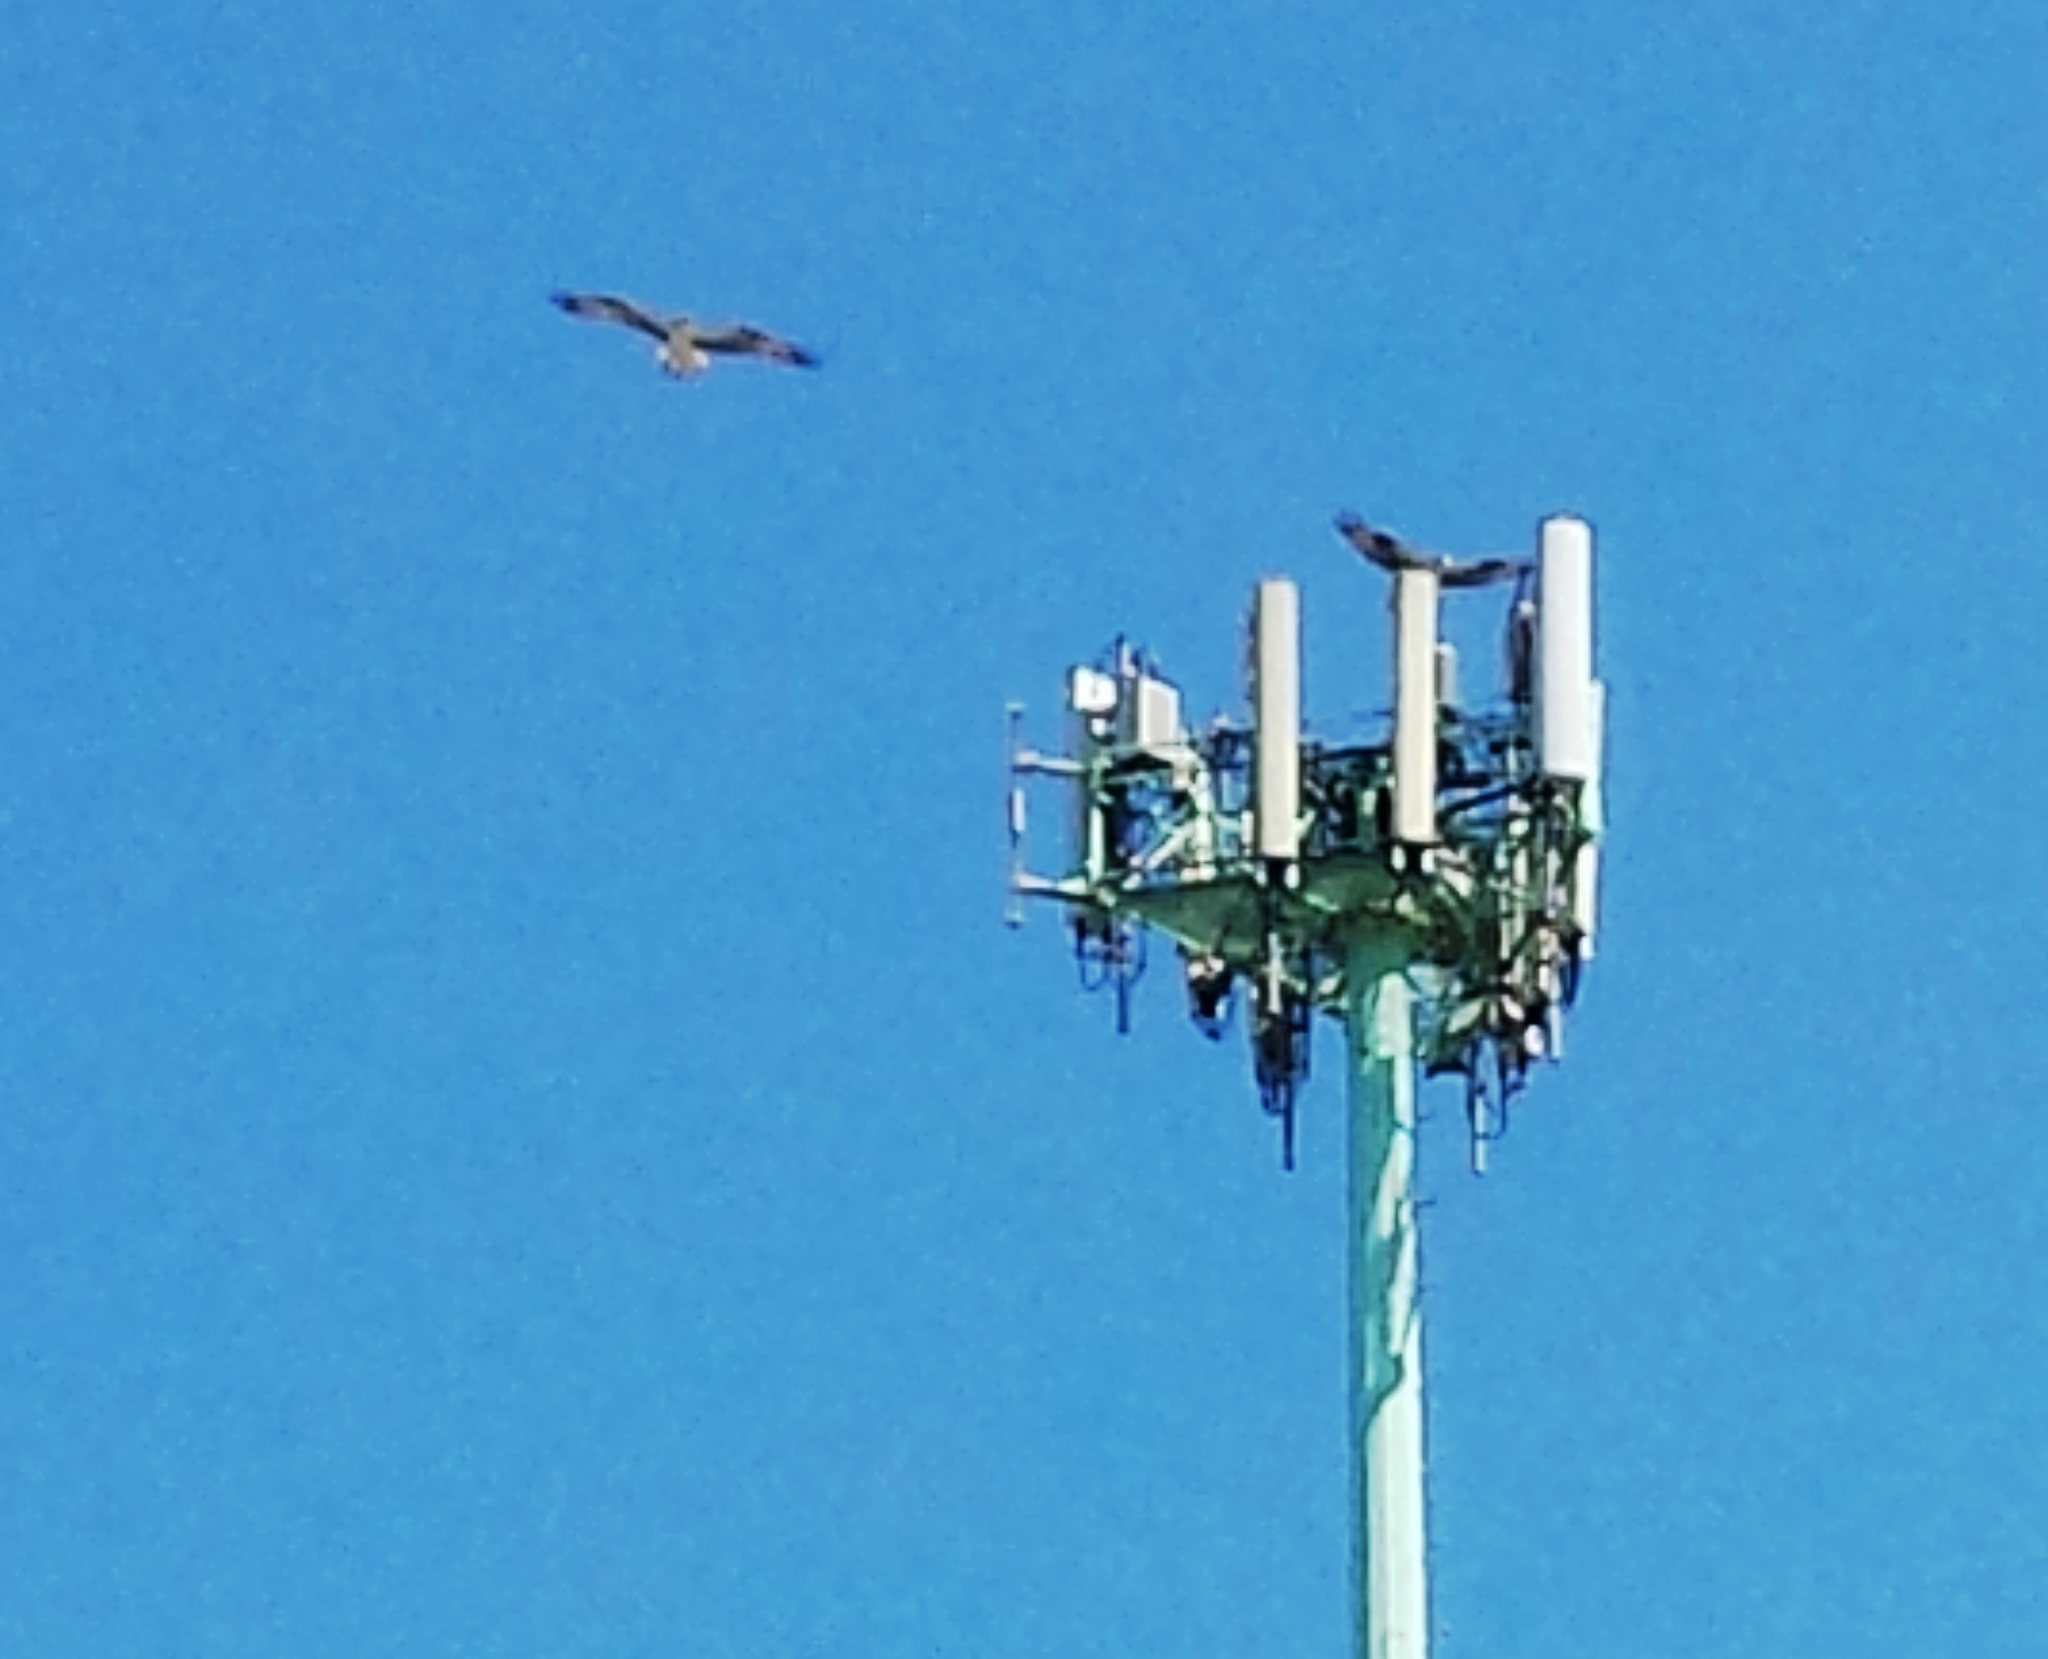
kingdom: Animalia
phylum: Chordata
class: Aves
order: Accipitriformes
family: Pandionidae
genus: Pandion
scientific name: Pandion haliaetus
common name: Osprey
